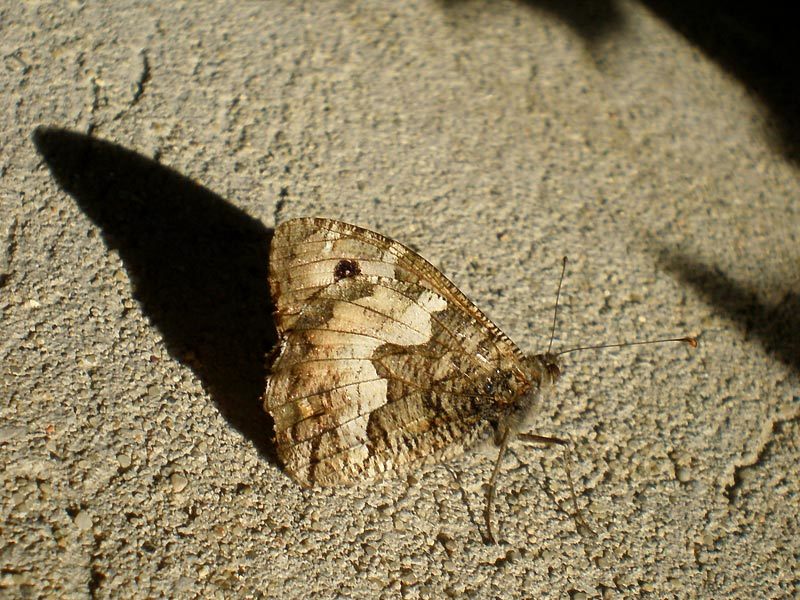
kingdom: Animalia
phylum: Arthropoda
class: Insecta
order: Lepidoptera
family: Nymphalidae
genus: Hipparchia
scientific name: Hipparchia semele
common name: Grayling
